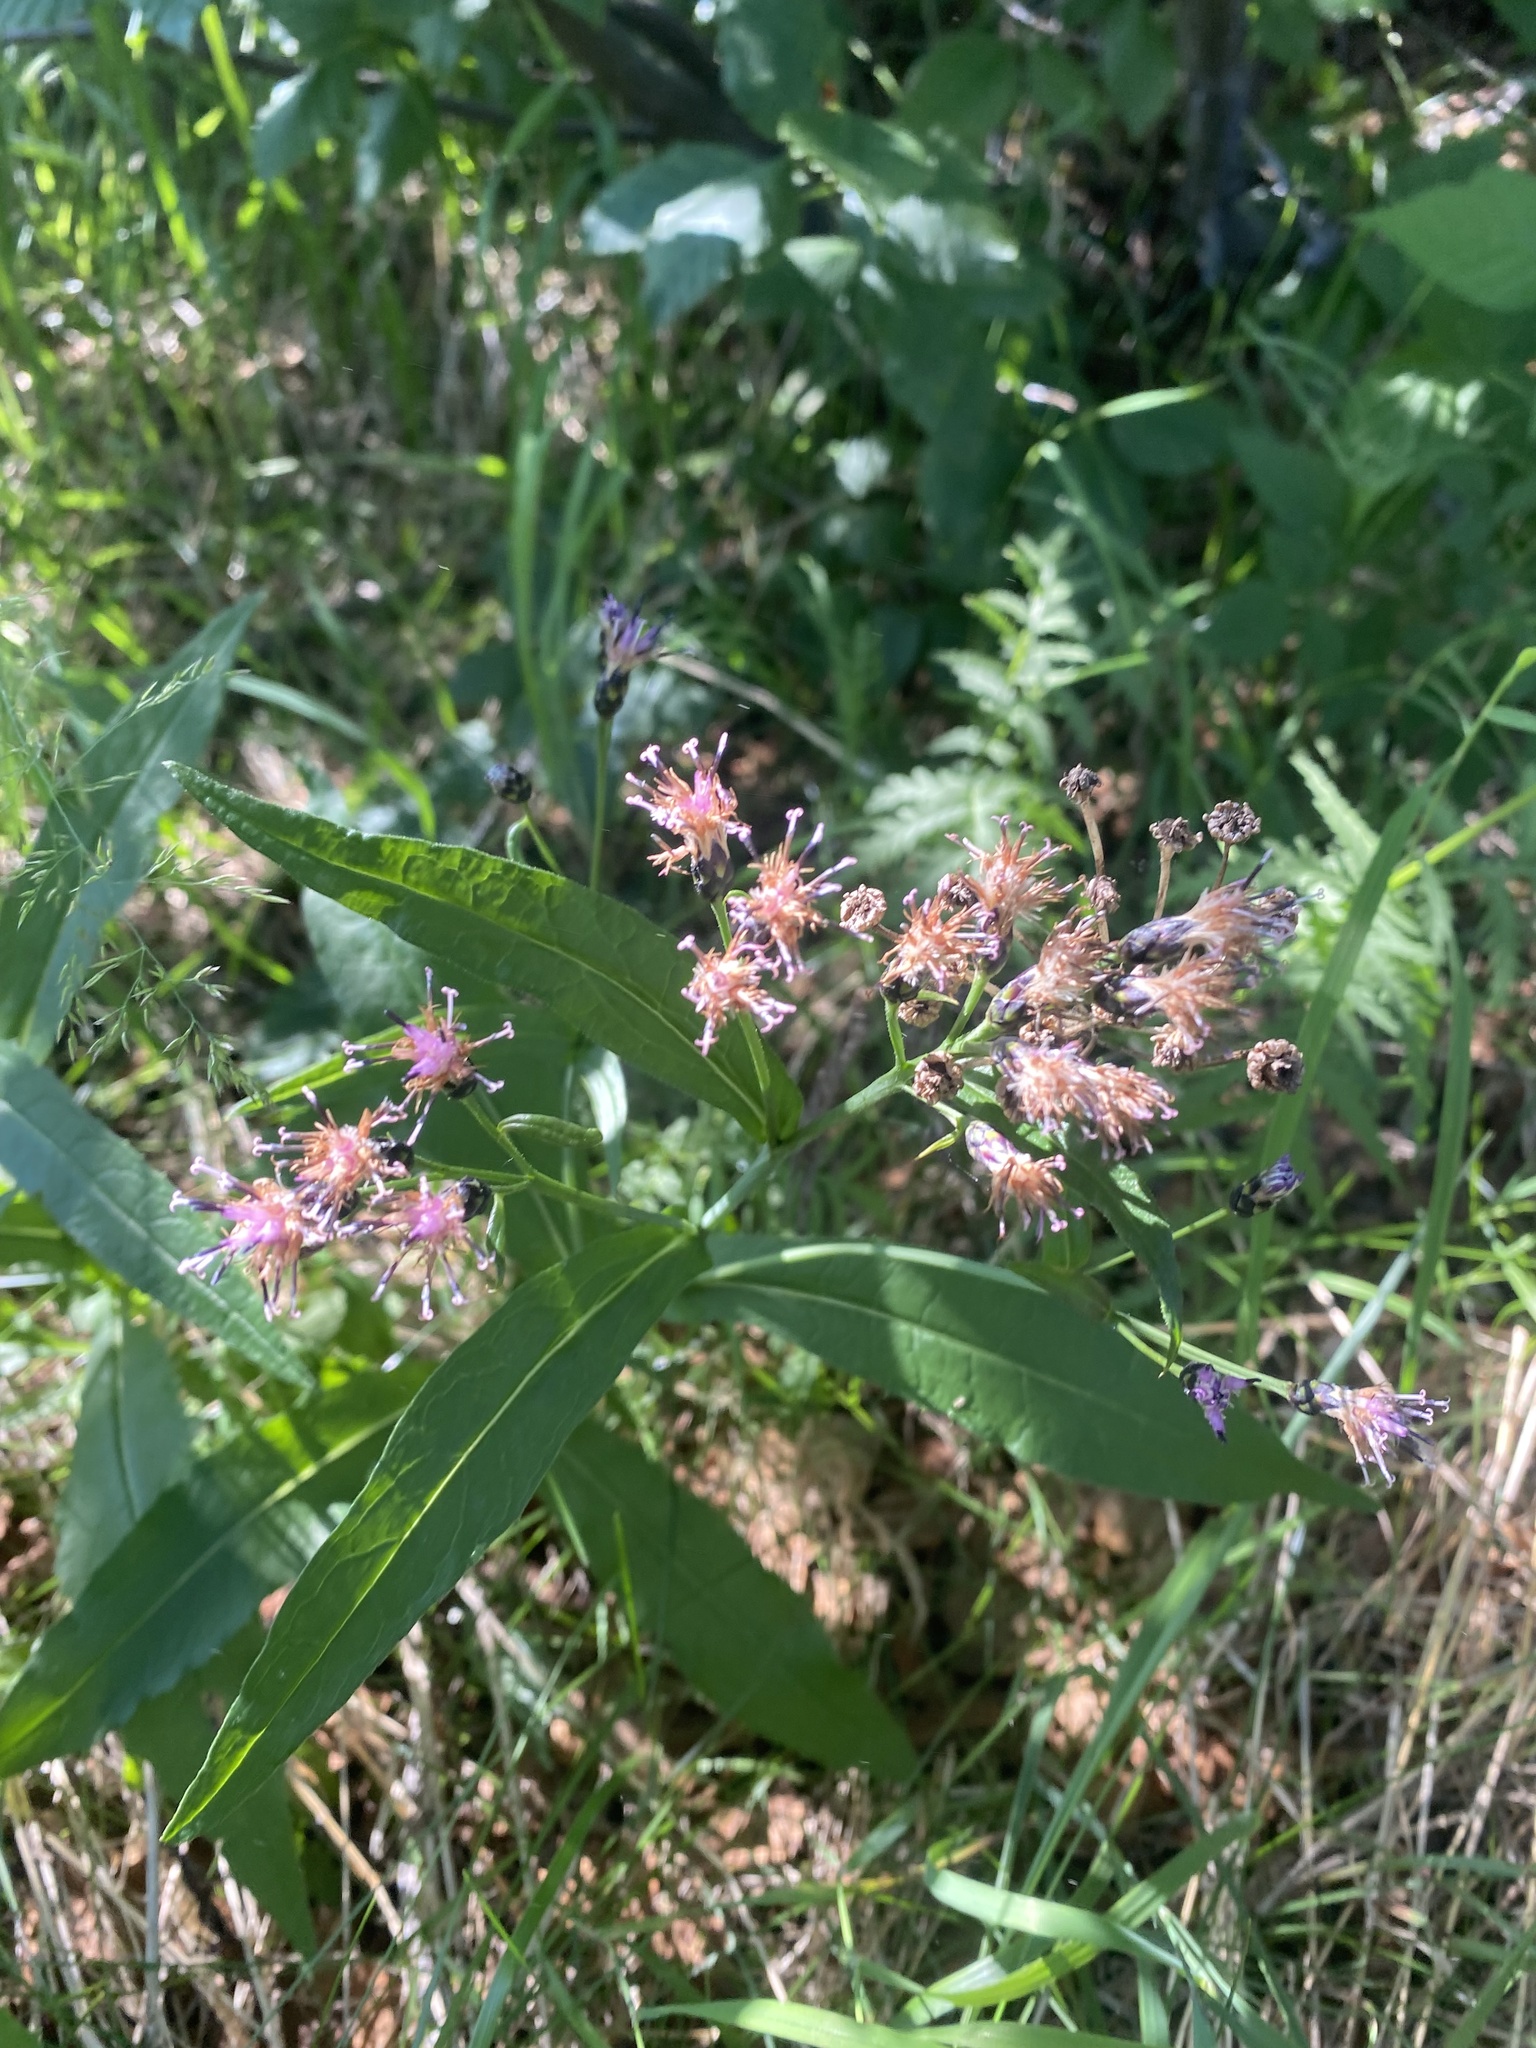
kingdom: Plantae
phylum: Tracheophyta
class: Magnoliopsida
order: Asterales
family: Asteraceae
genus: Saussurea
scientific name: Saussurea parviflora
